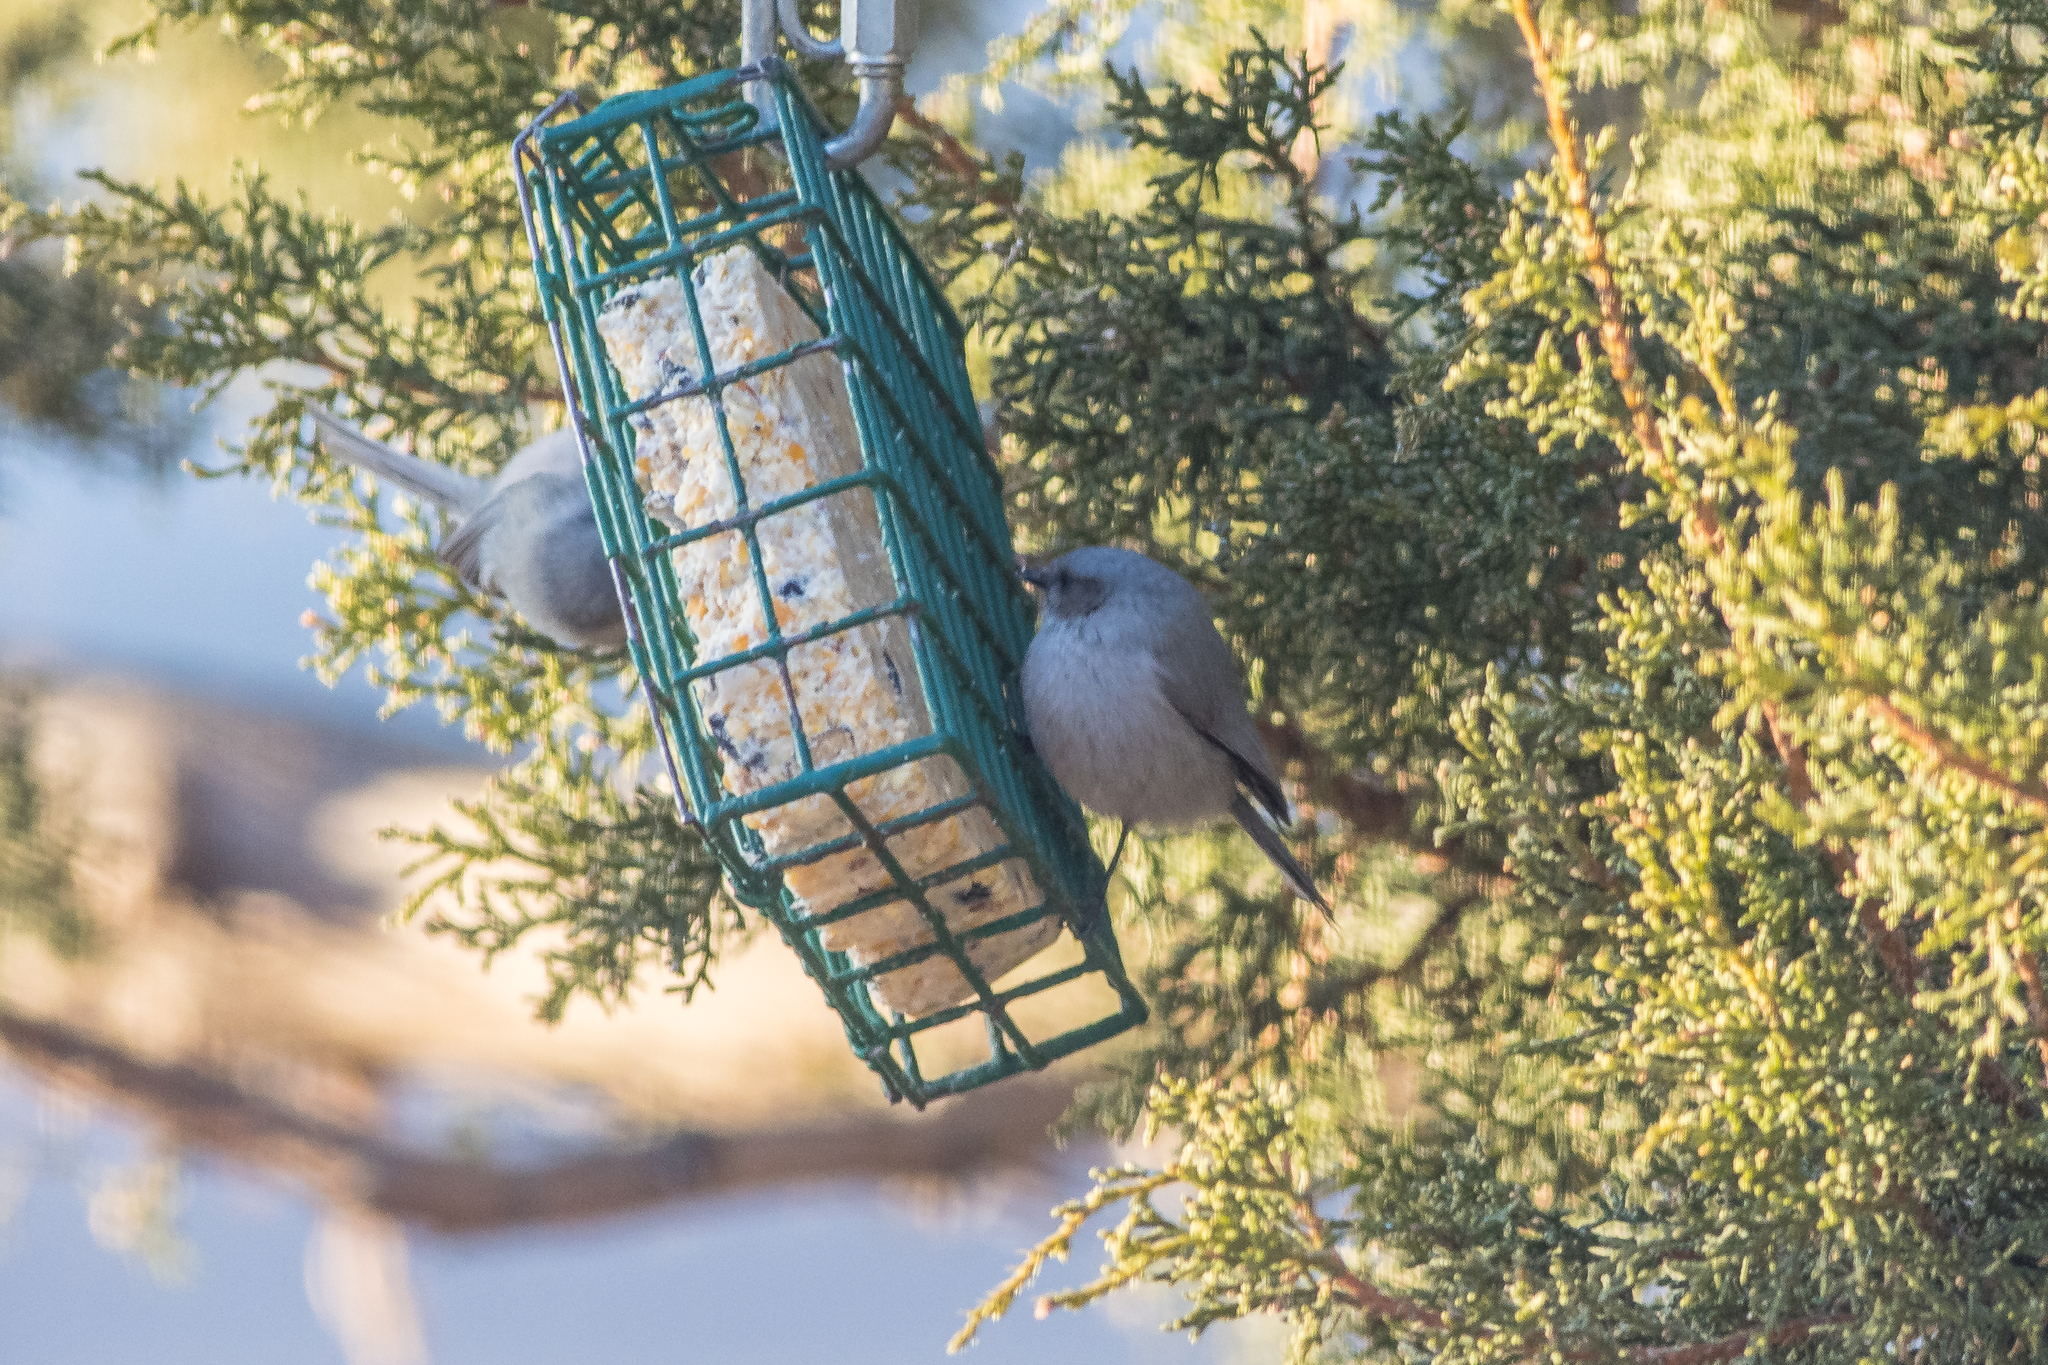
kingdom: Animalia
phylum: Chordata
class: Aves
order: Passeriformes
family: Aegithalidae
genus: Psaltriparus
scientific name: Psaltriparus minimus
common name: American bushtit
